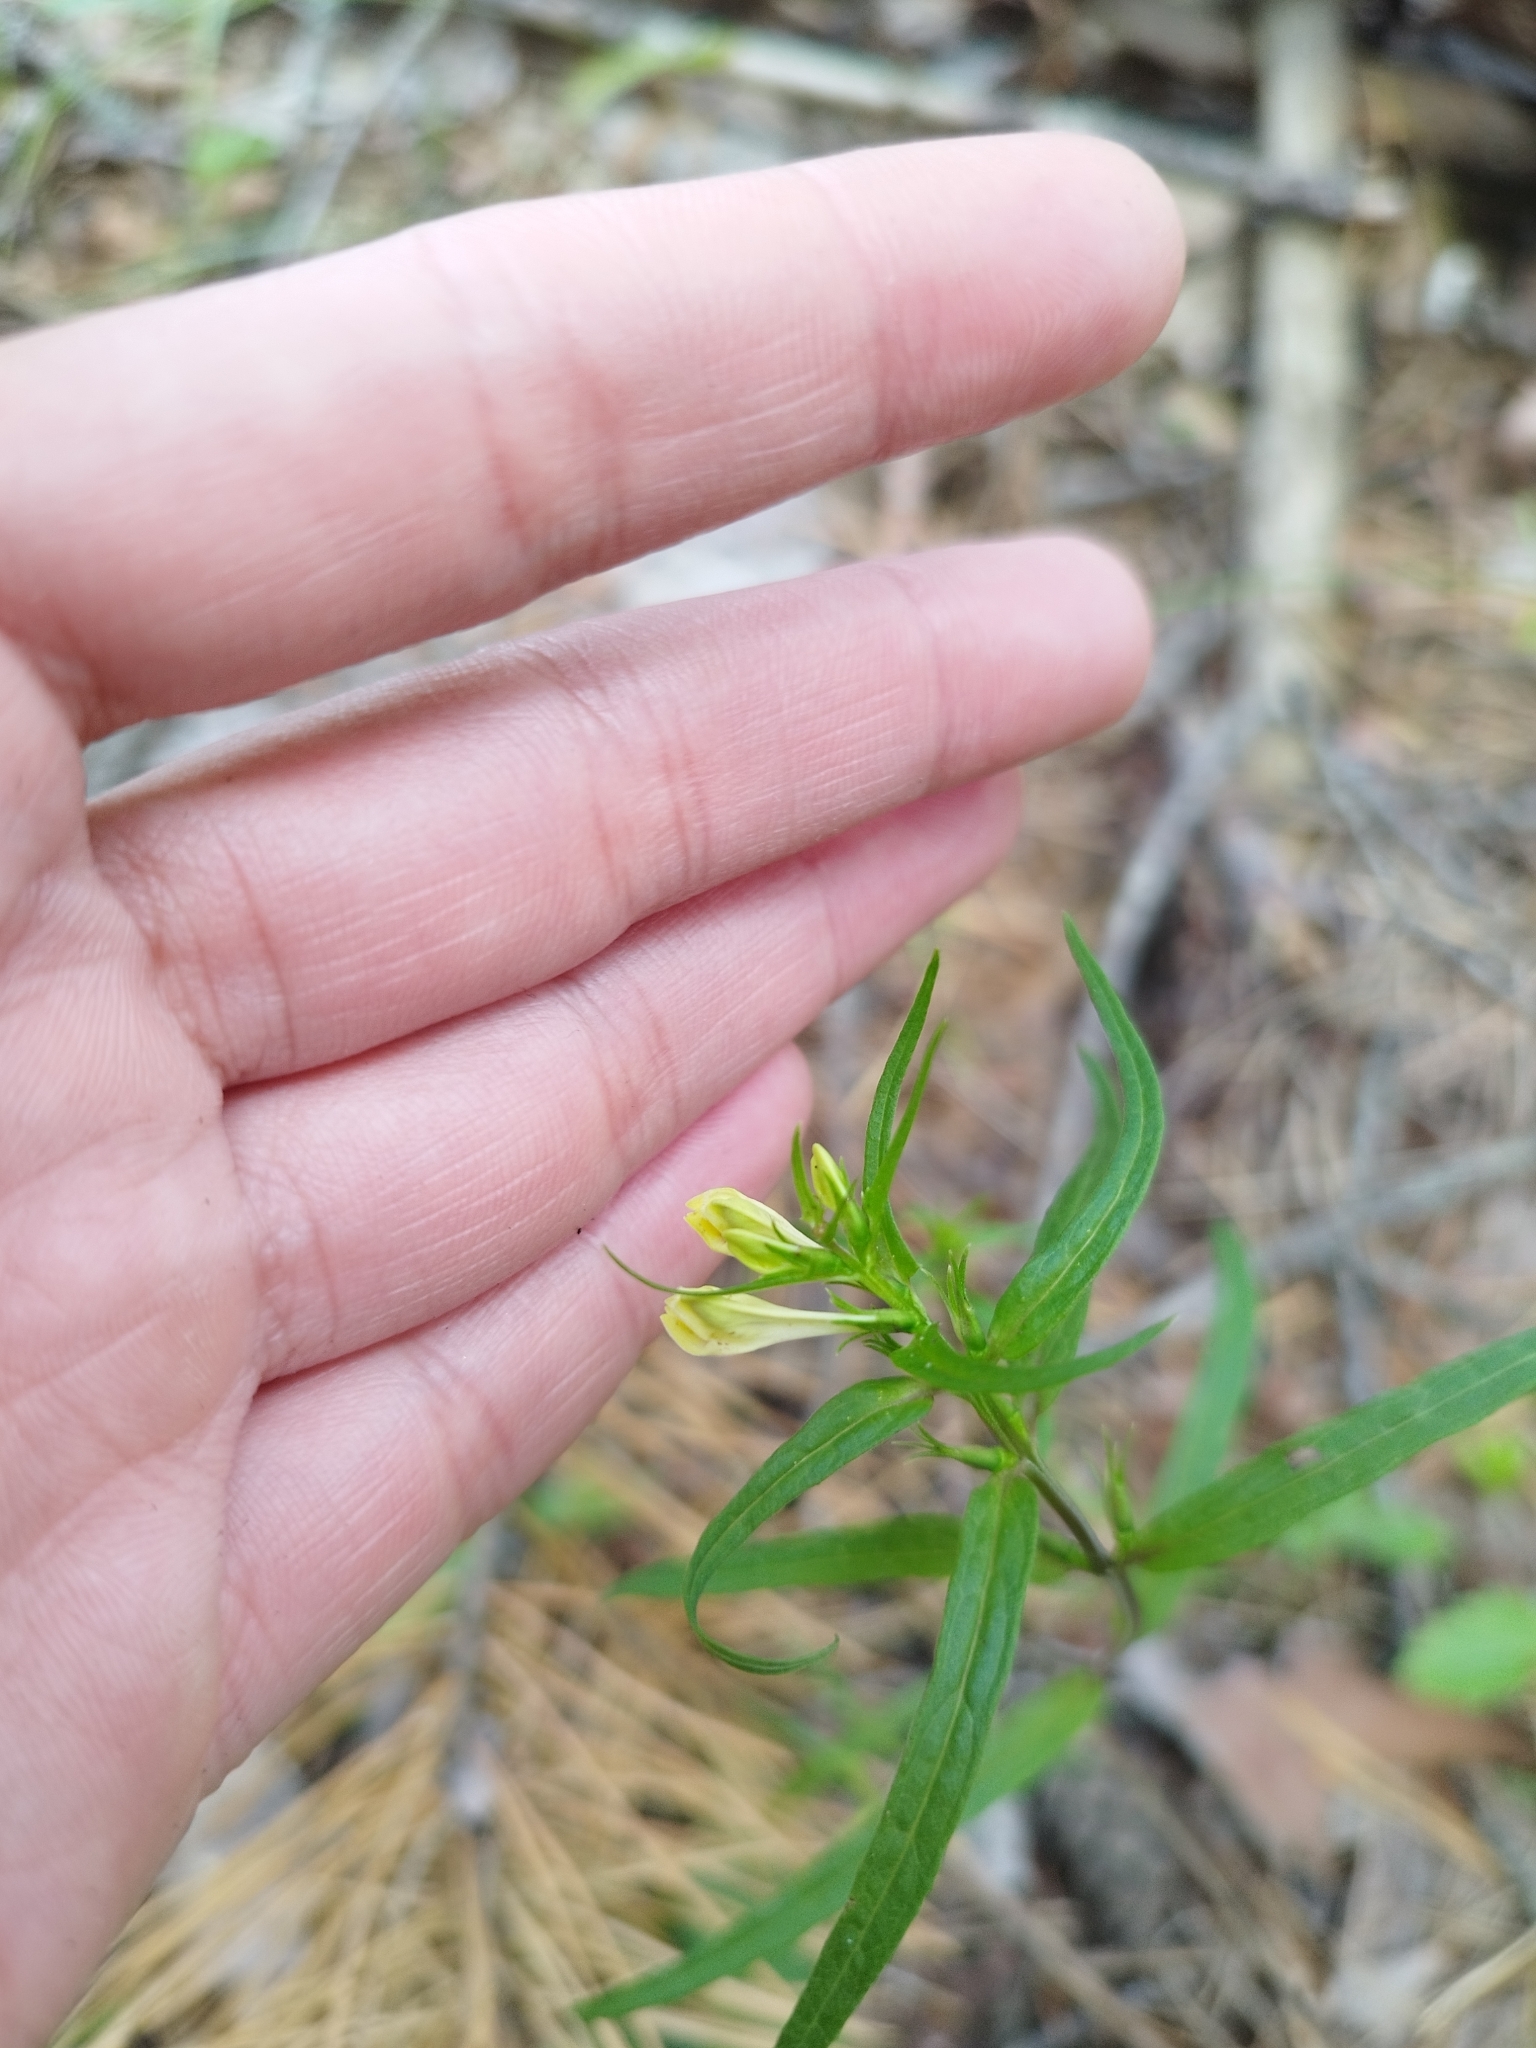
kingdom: Plantae
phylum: Tracheophyta
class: Magnoliopsida
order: Lamiales
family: Orobanchaceae
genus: Melampyrum
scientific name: Melampyrum pratense
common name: Common cow-wheat
